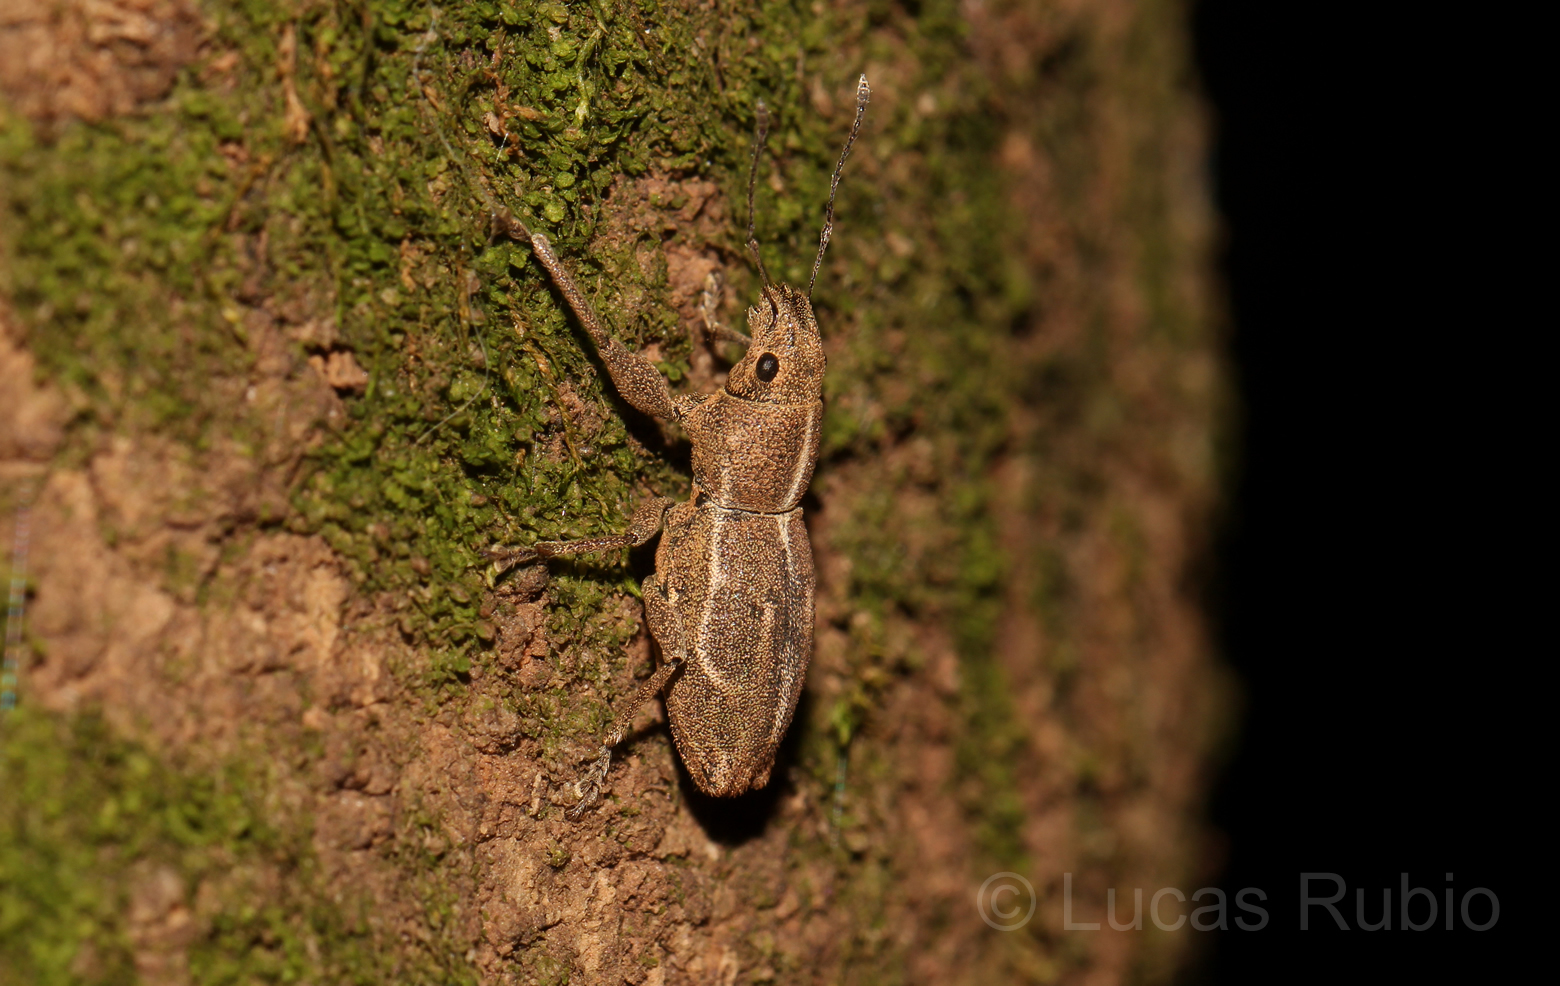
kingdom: Animalia
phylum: Arthropoda
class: Insecta
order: Coleoptera
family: Curculionidae
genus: Naupactus
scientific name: Naupactus dissimulator
